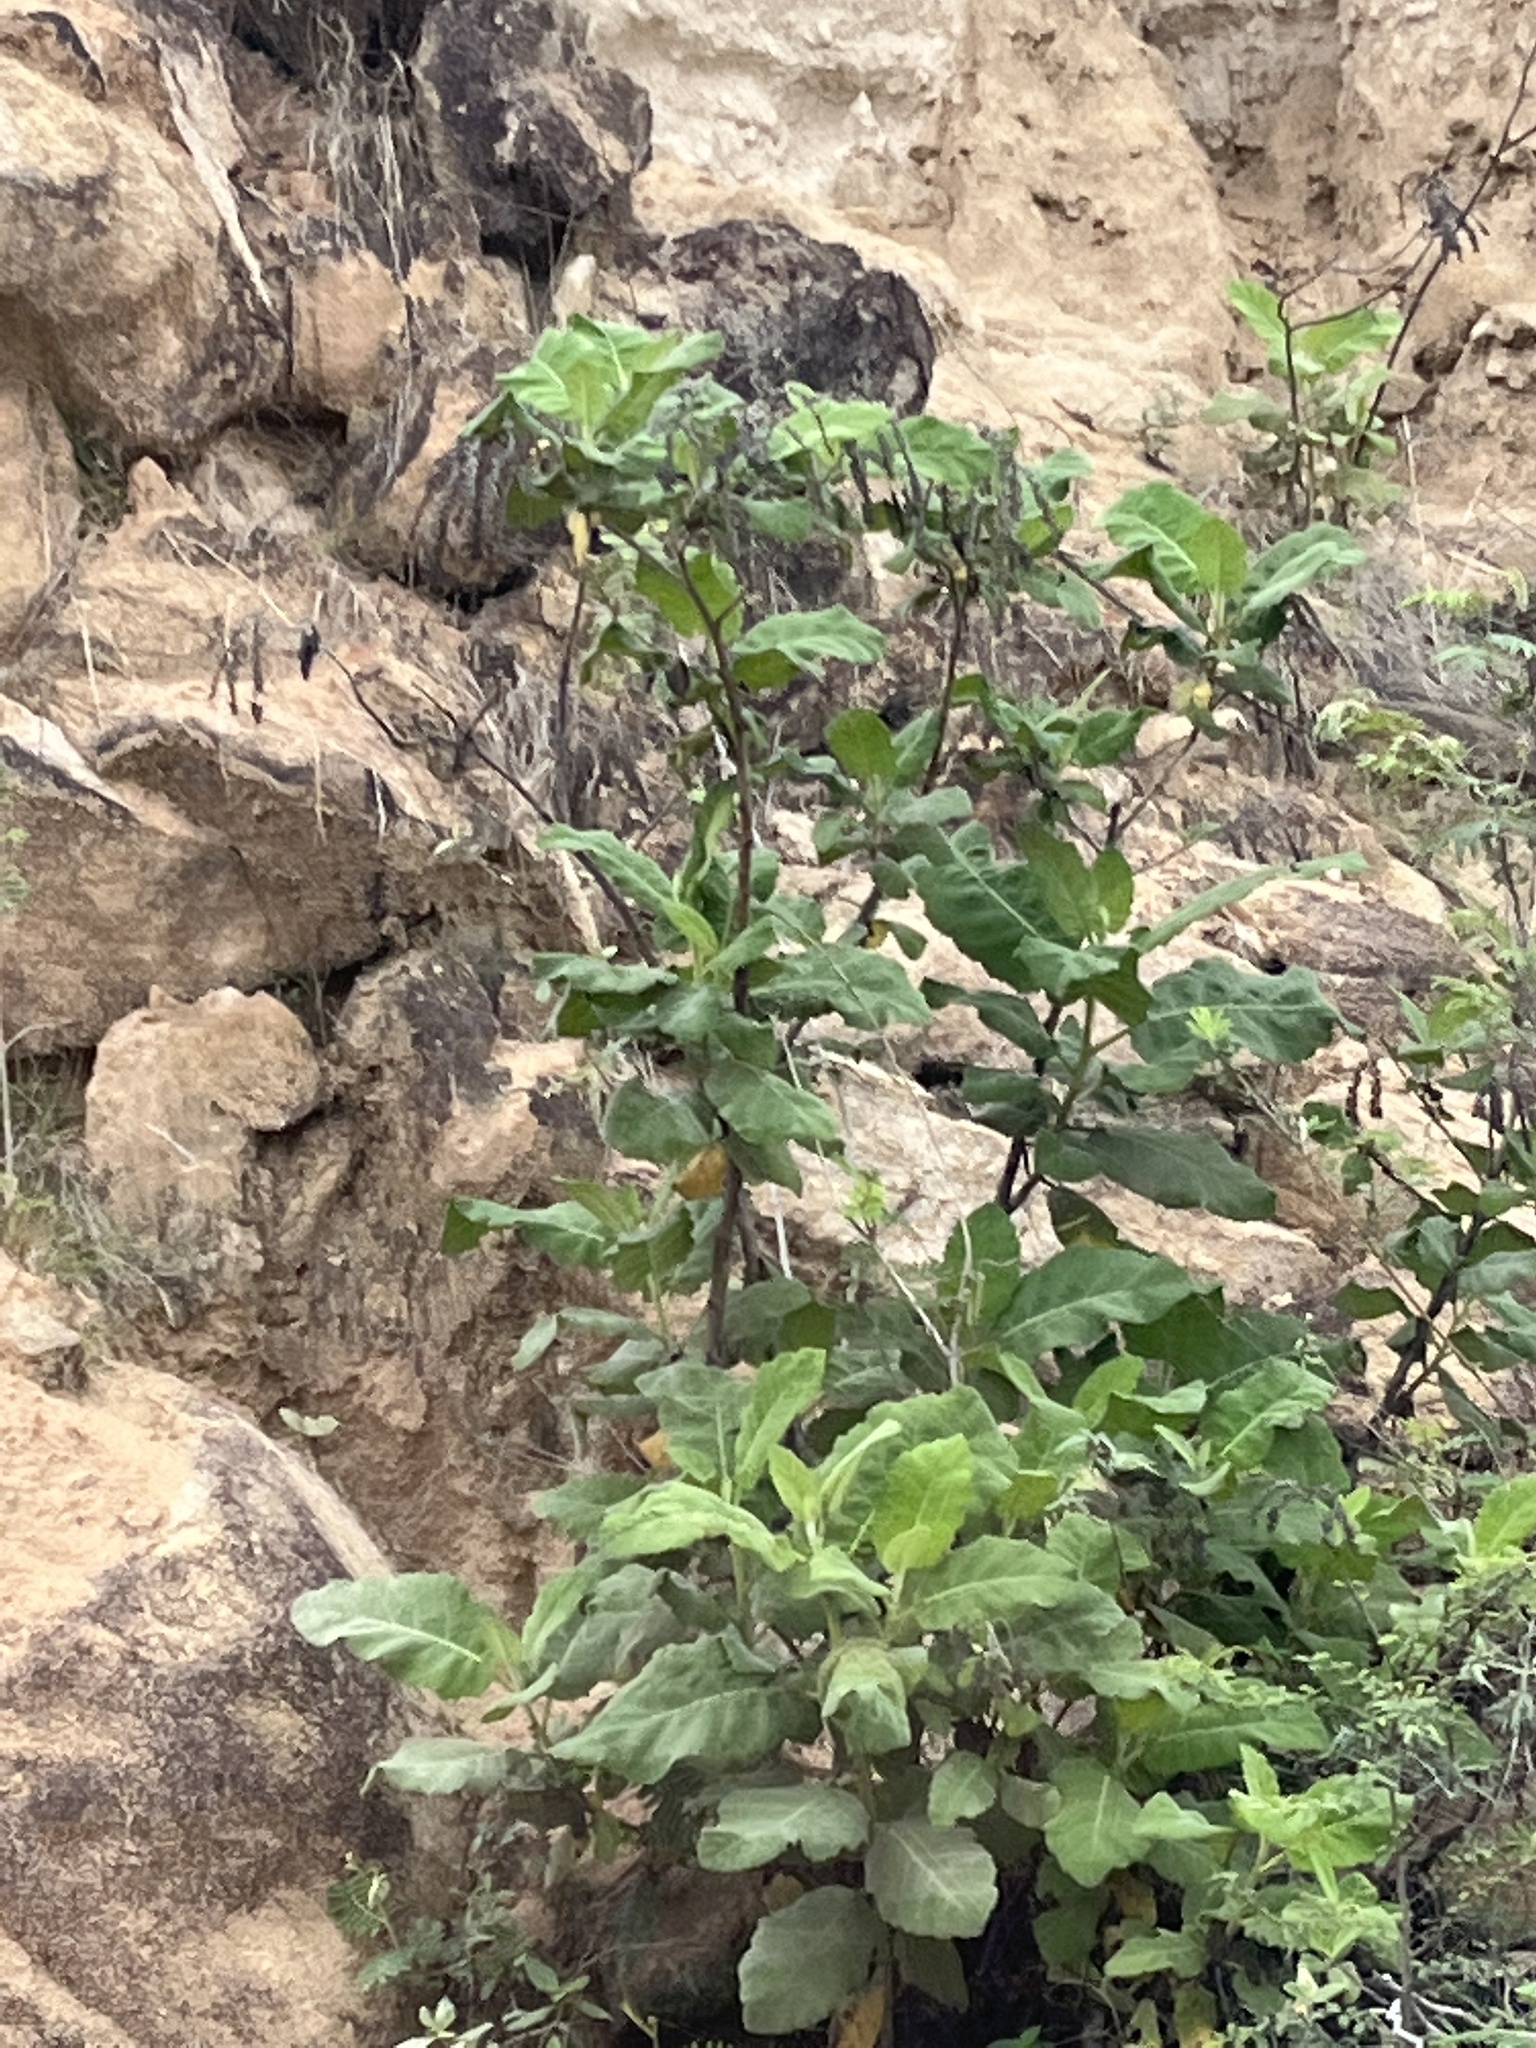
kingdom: Plantae
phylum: Tracheophyta
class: Magnoliopsida
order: Boraginales
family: Namaceae
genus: Wigandia
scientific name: Wigandia urens
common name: Caracus wigandia
